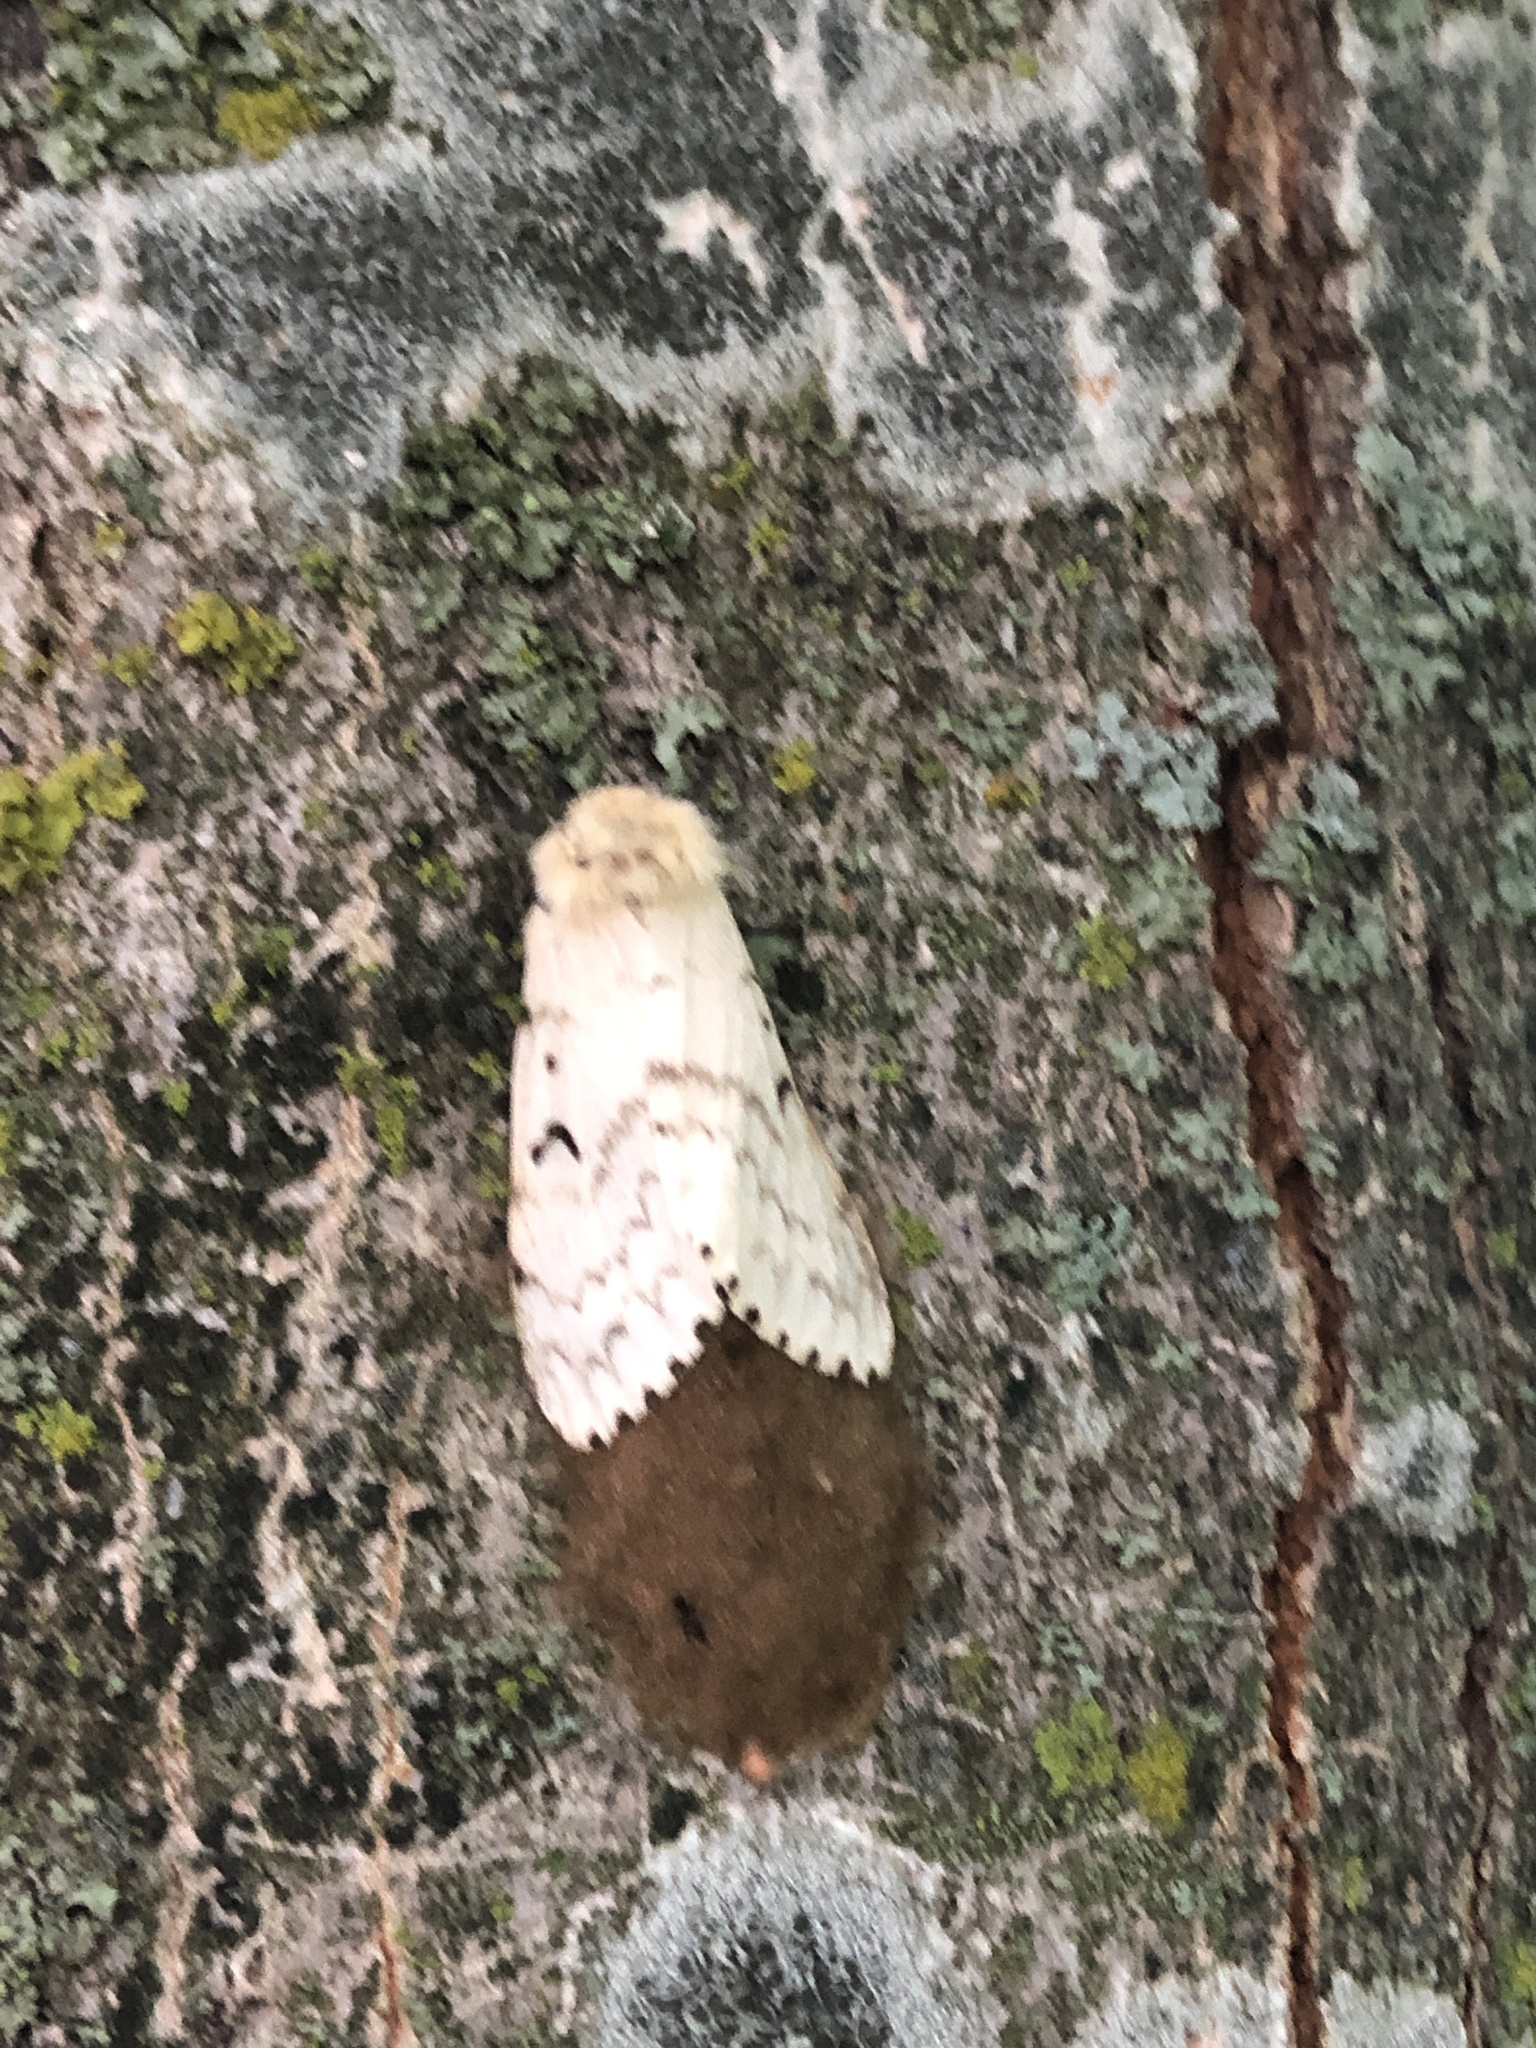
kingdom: Animalia
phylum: Arthropoda
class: Insecta
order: Lepidoptera
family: Erebidae
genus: Lymantria
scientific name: Lymantria dispar
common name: Gypsy moth
